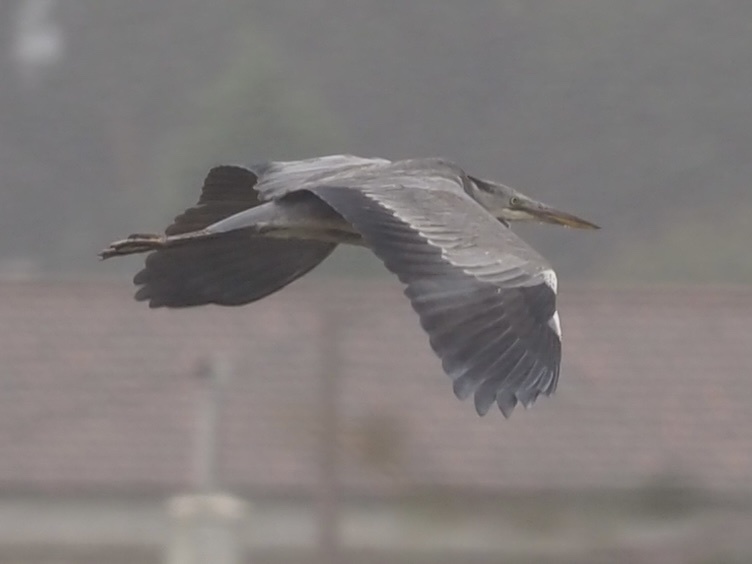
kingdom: Animalia
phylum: Chordata
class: Aves
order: Pelecaniformes
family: Ardeidae
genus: Ardea
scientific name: Ardea cinerea
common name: Grey heron
